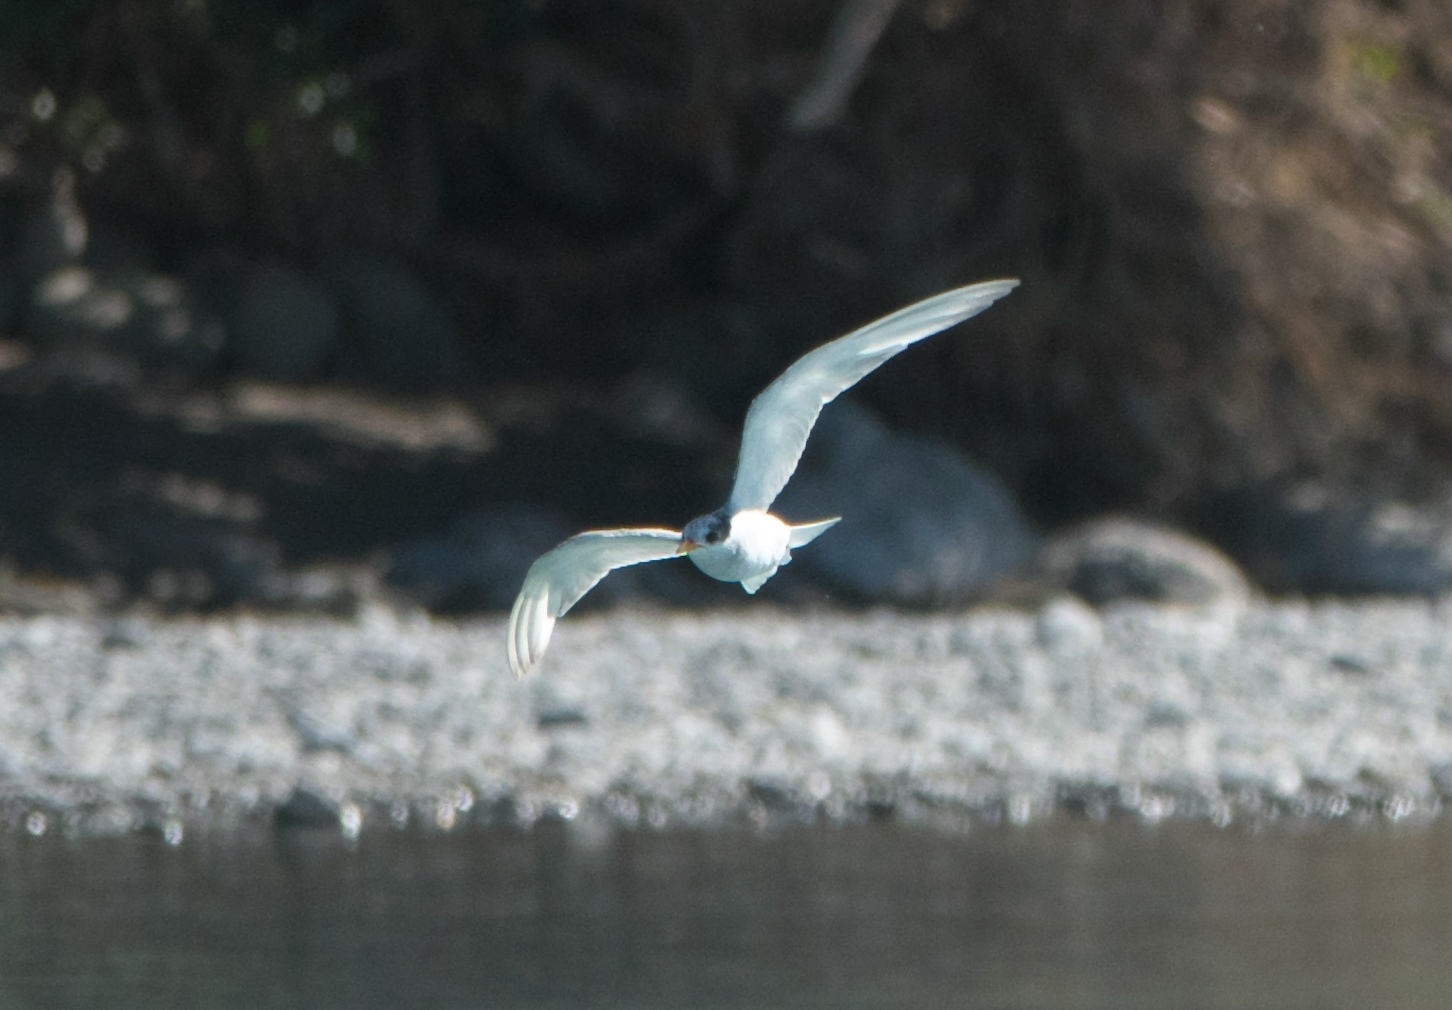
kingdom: Animalia
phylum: Chordata
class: Aves
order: Charadriiformes
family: Laridae
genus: Chlidonias
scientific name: Chlidonias albostriatus
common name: Black-fronted tern
